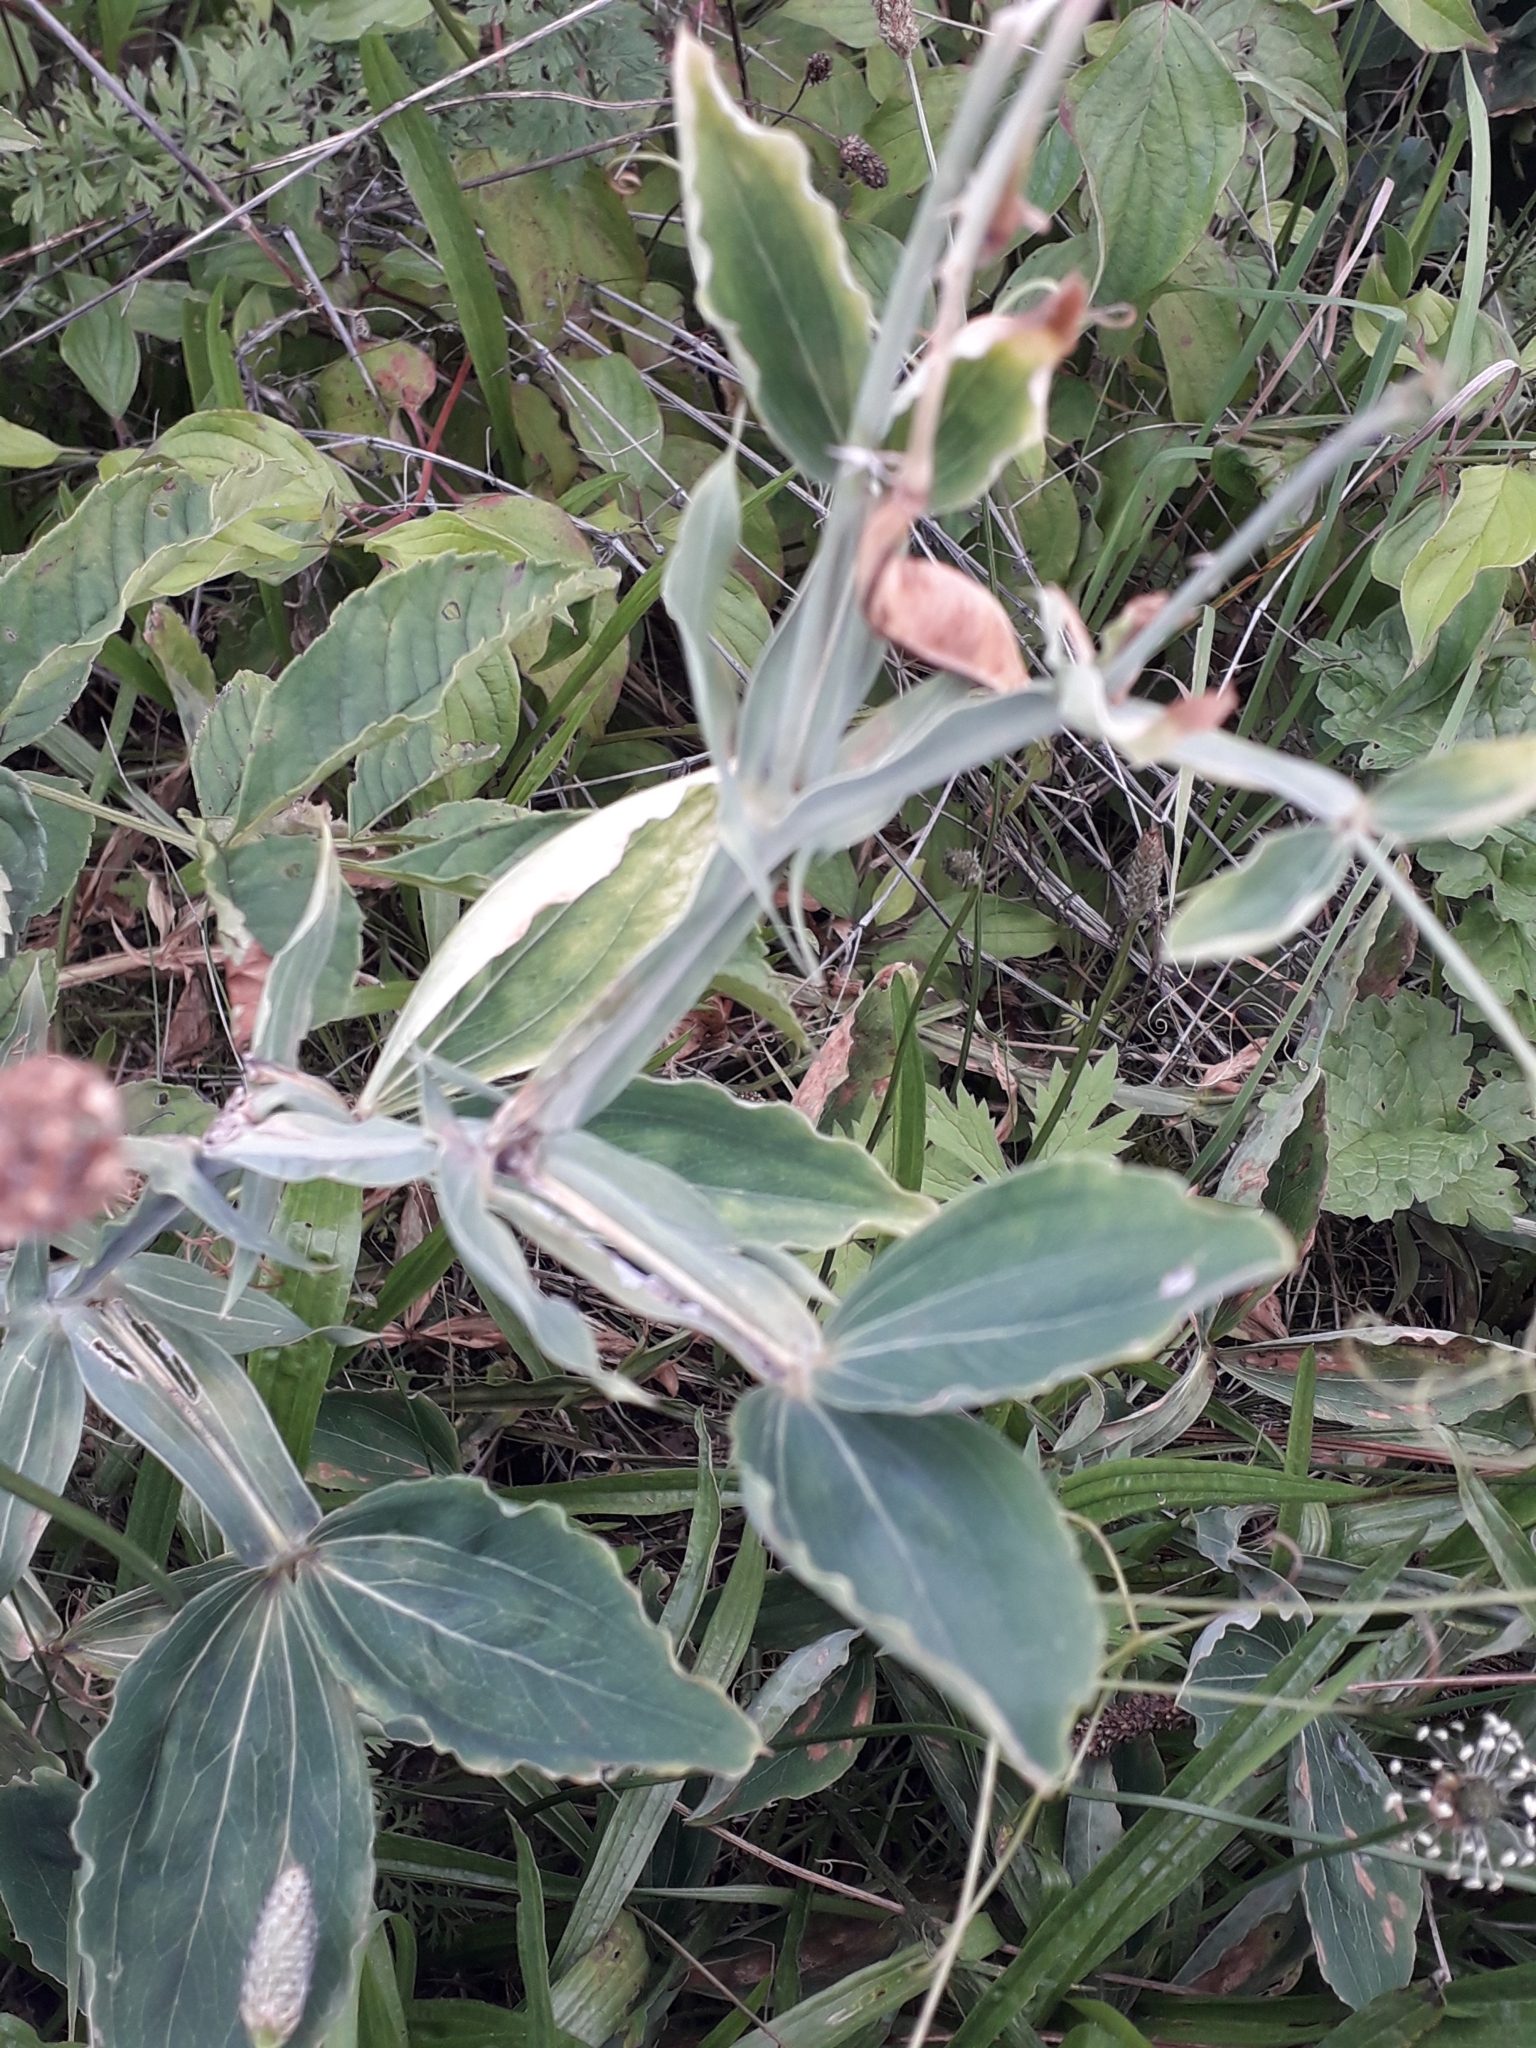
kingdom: Plantae
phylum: Tracheophyta
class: Magnoliopsida
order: Fabales
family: Fabaceae
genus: Lathyrus
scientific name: Lathyrus latifolius
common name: Perennial pea
